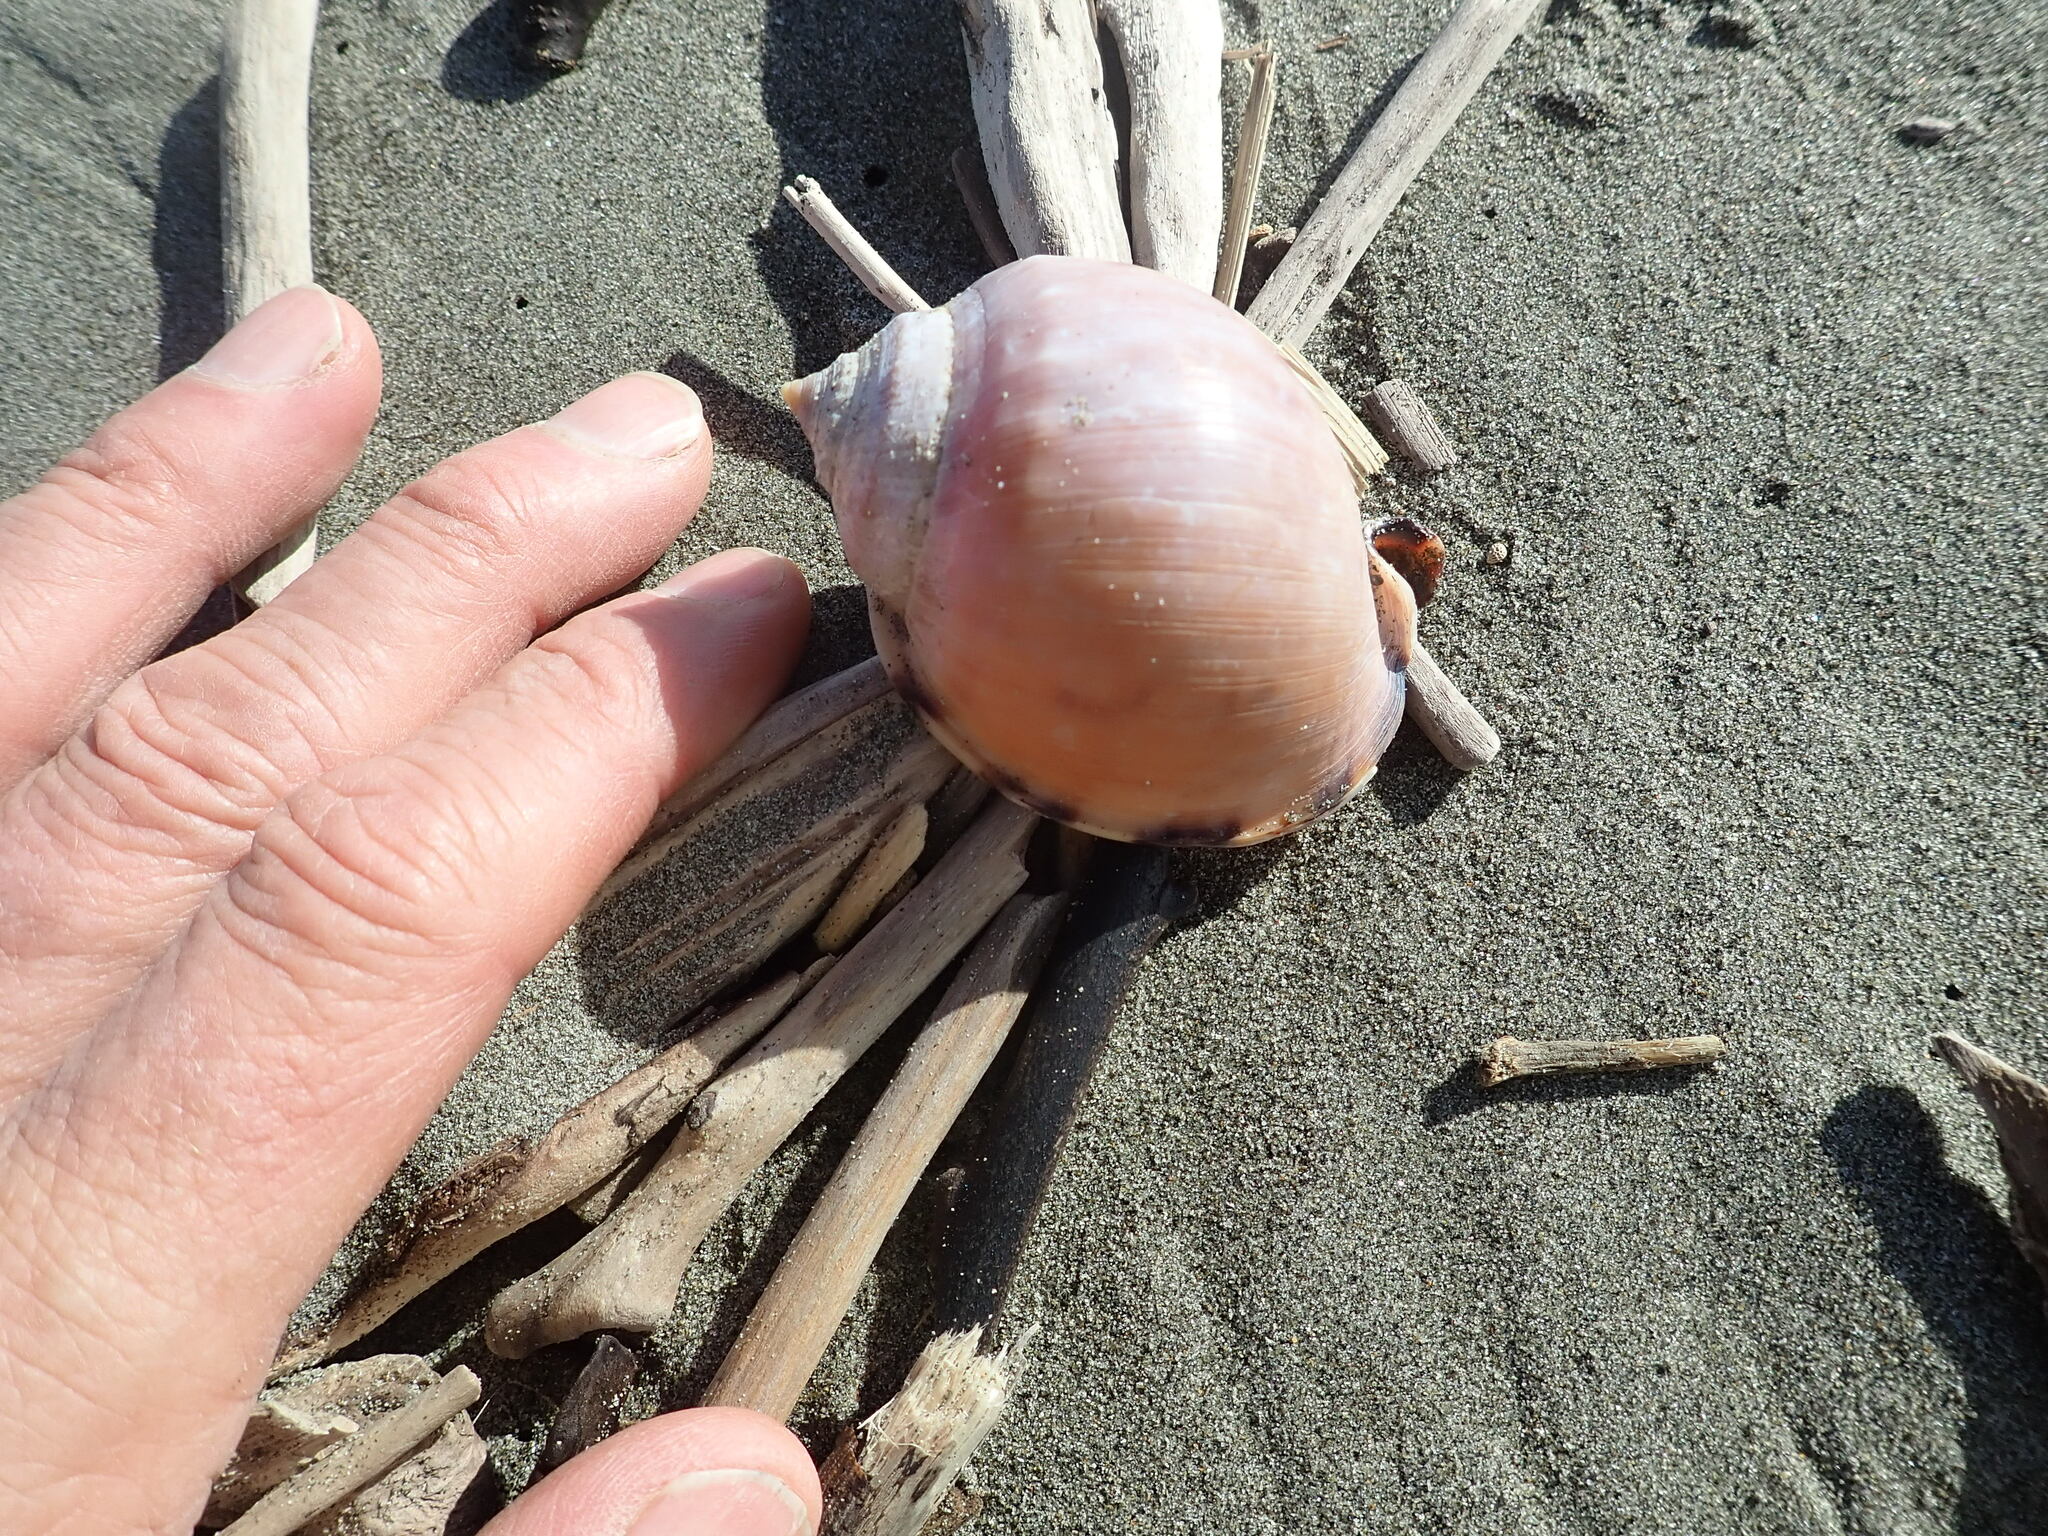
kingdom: Animalia
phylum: Mollusca
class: Gastropoda
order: Littorinimorpha
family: Cassidae
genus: Semicassis
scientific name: Semicassis pyrum
